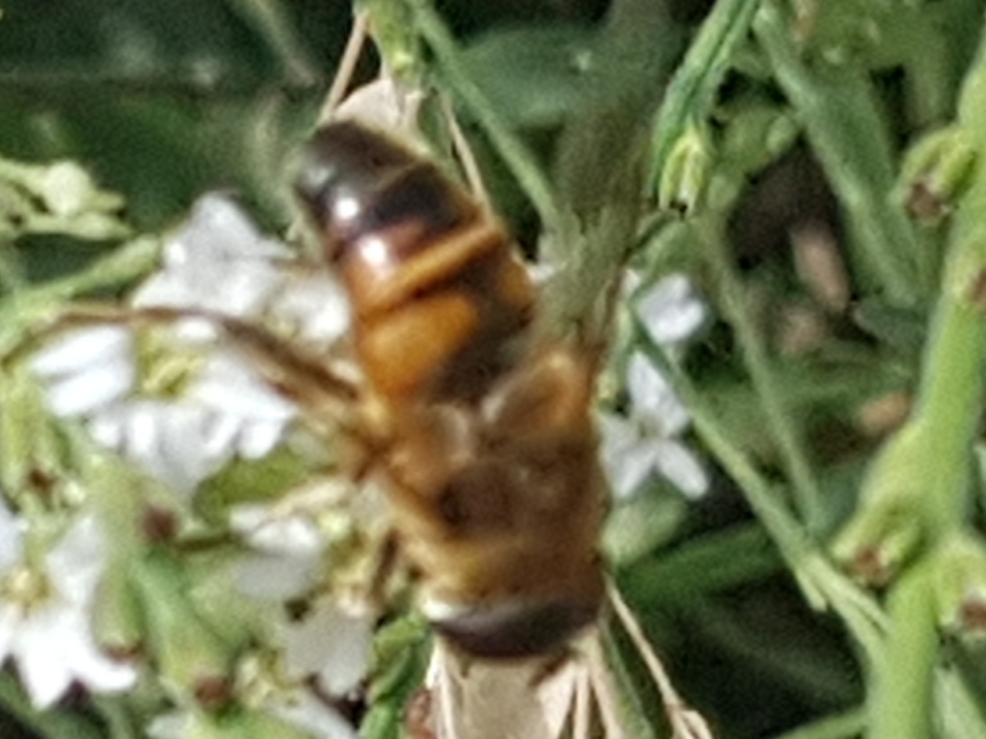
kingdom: Animalia
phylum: Arthropoda
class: Insecta
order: Diptera
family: Syrphidae
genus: Eristalis
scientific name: Eristalis tenax
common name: Drone fly
